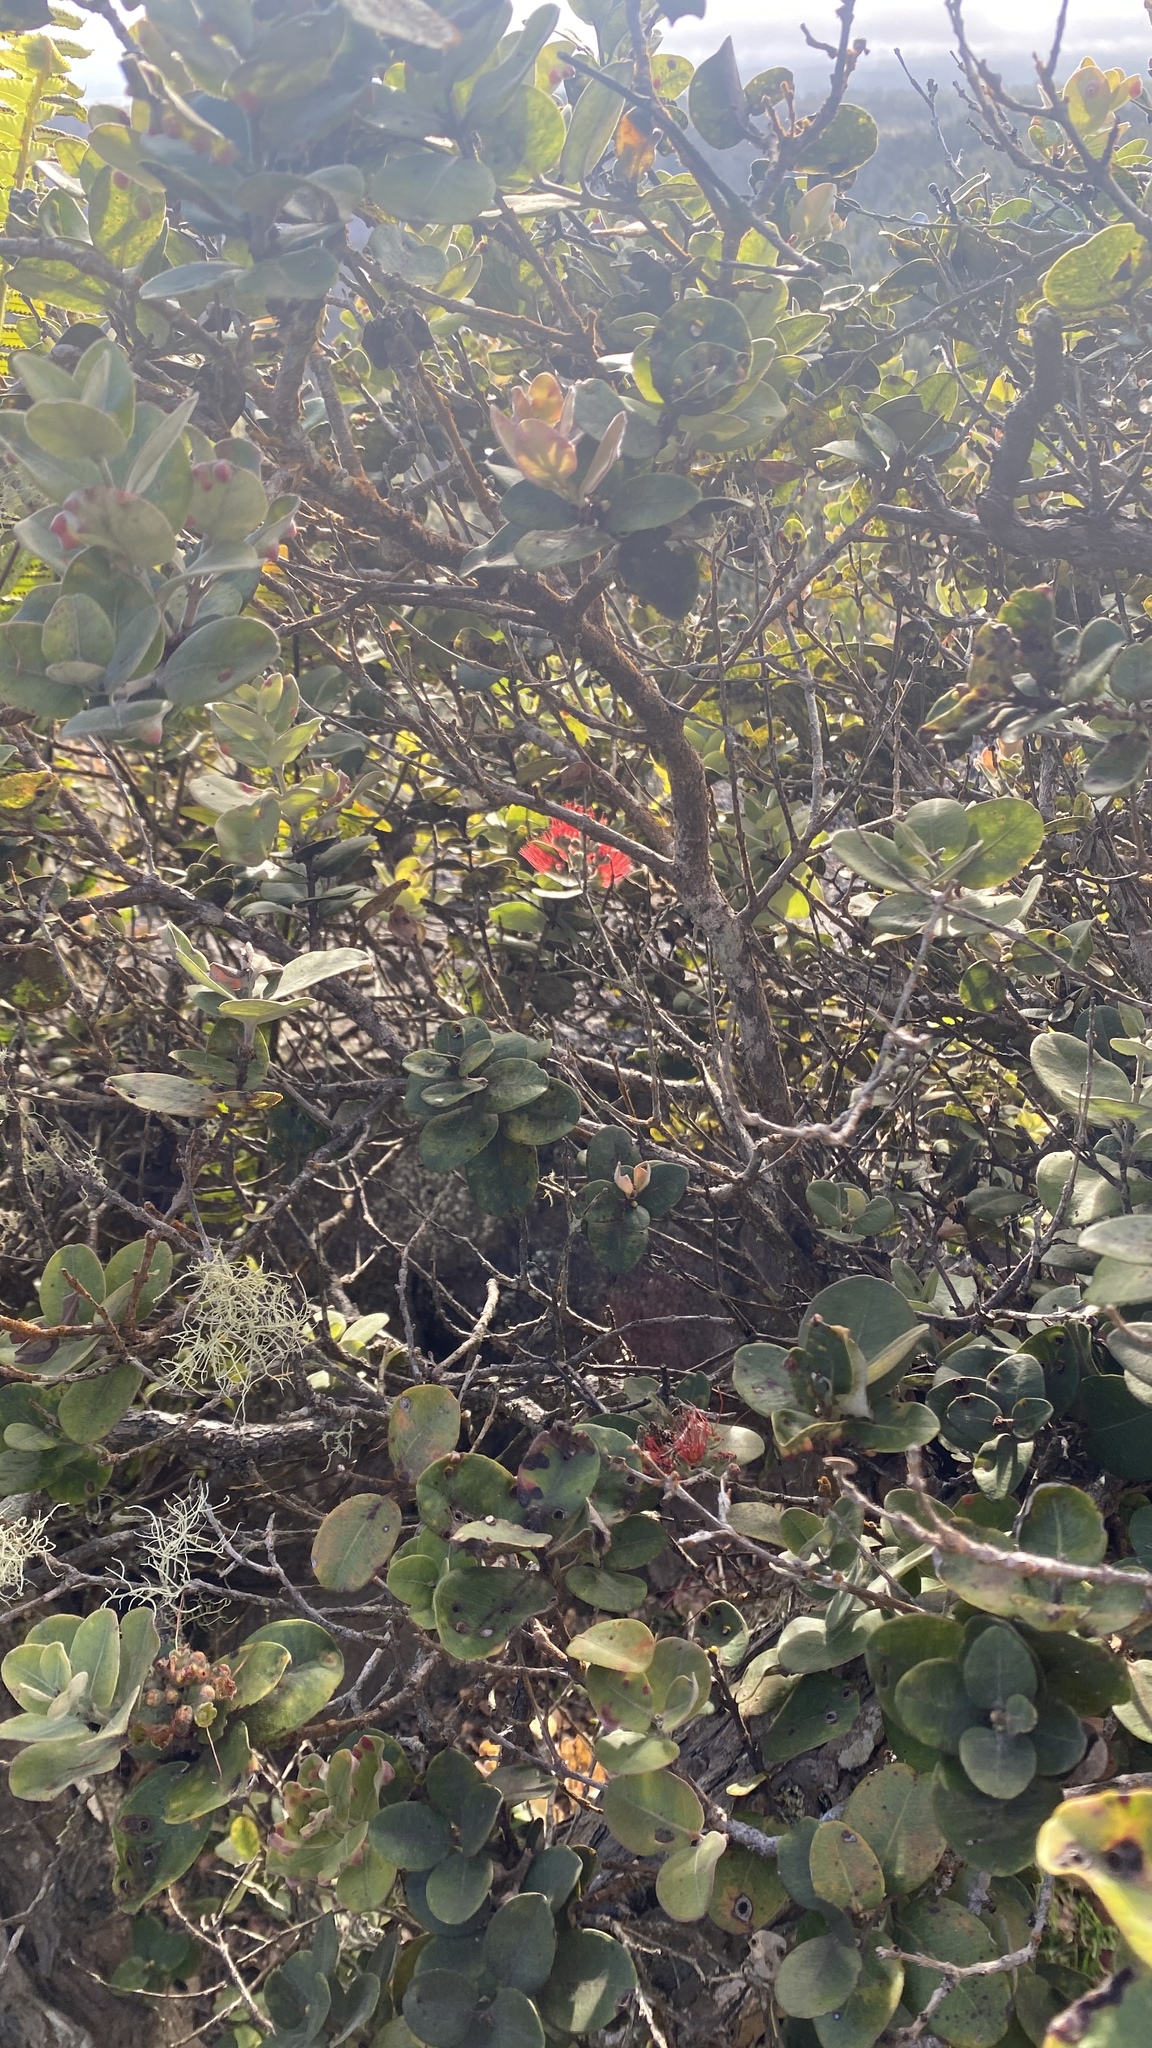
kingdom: Plantae
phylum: Tracheophyta
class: Magnoliopsida
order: Myrtales
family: Myrtaceae
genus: Metrosideros
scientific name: Metrosideros polymorpha
